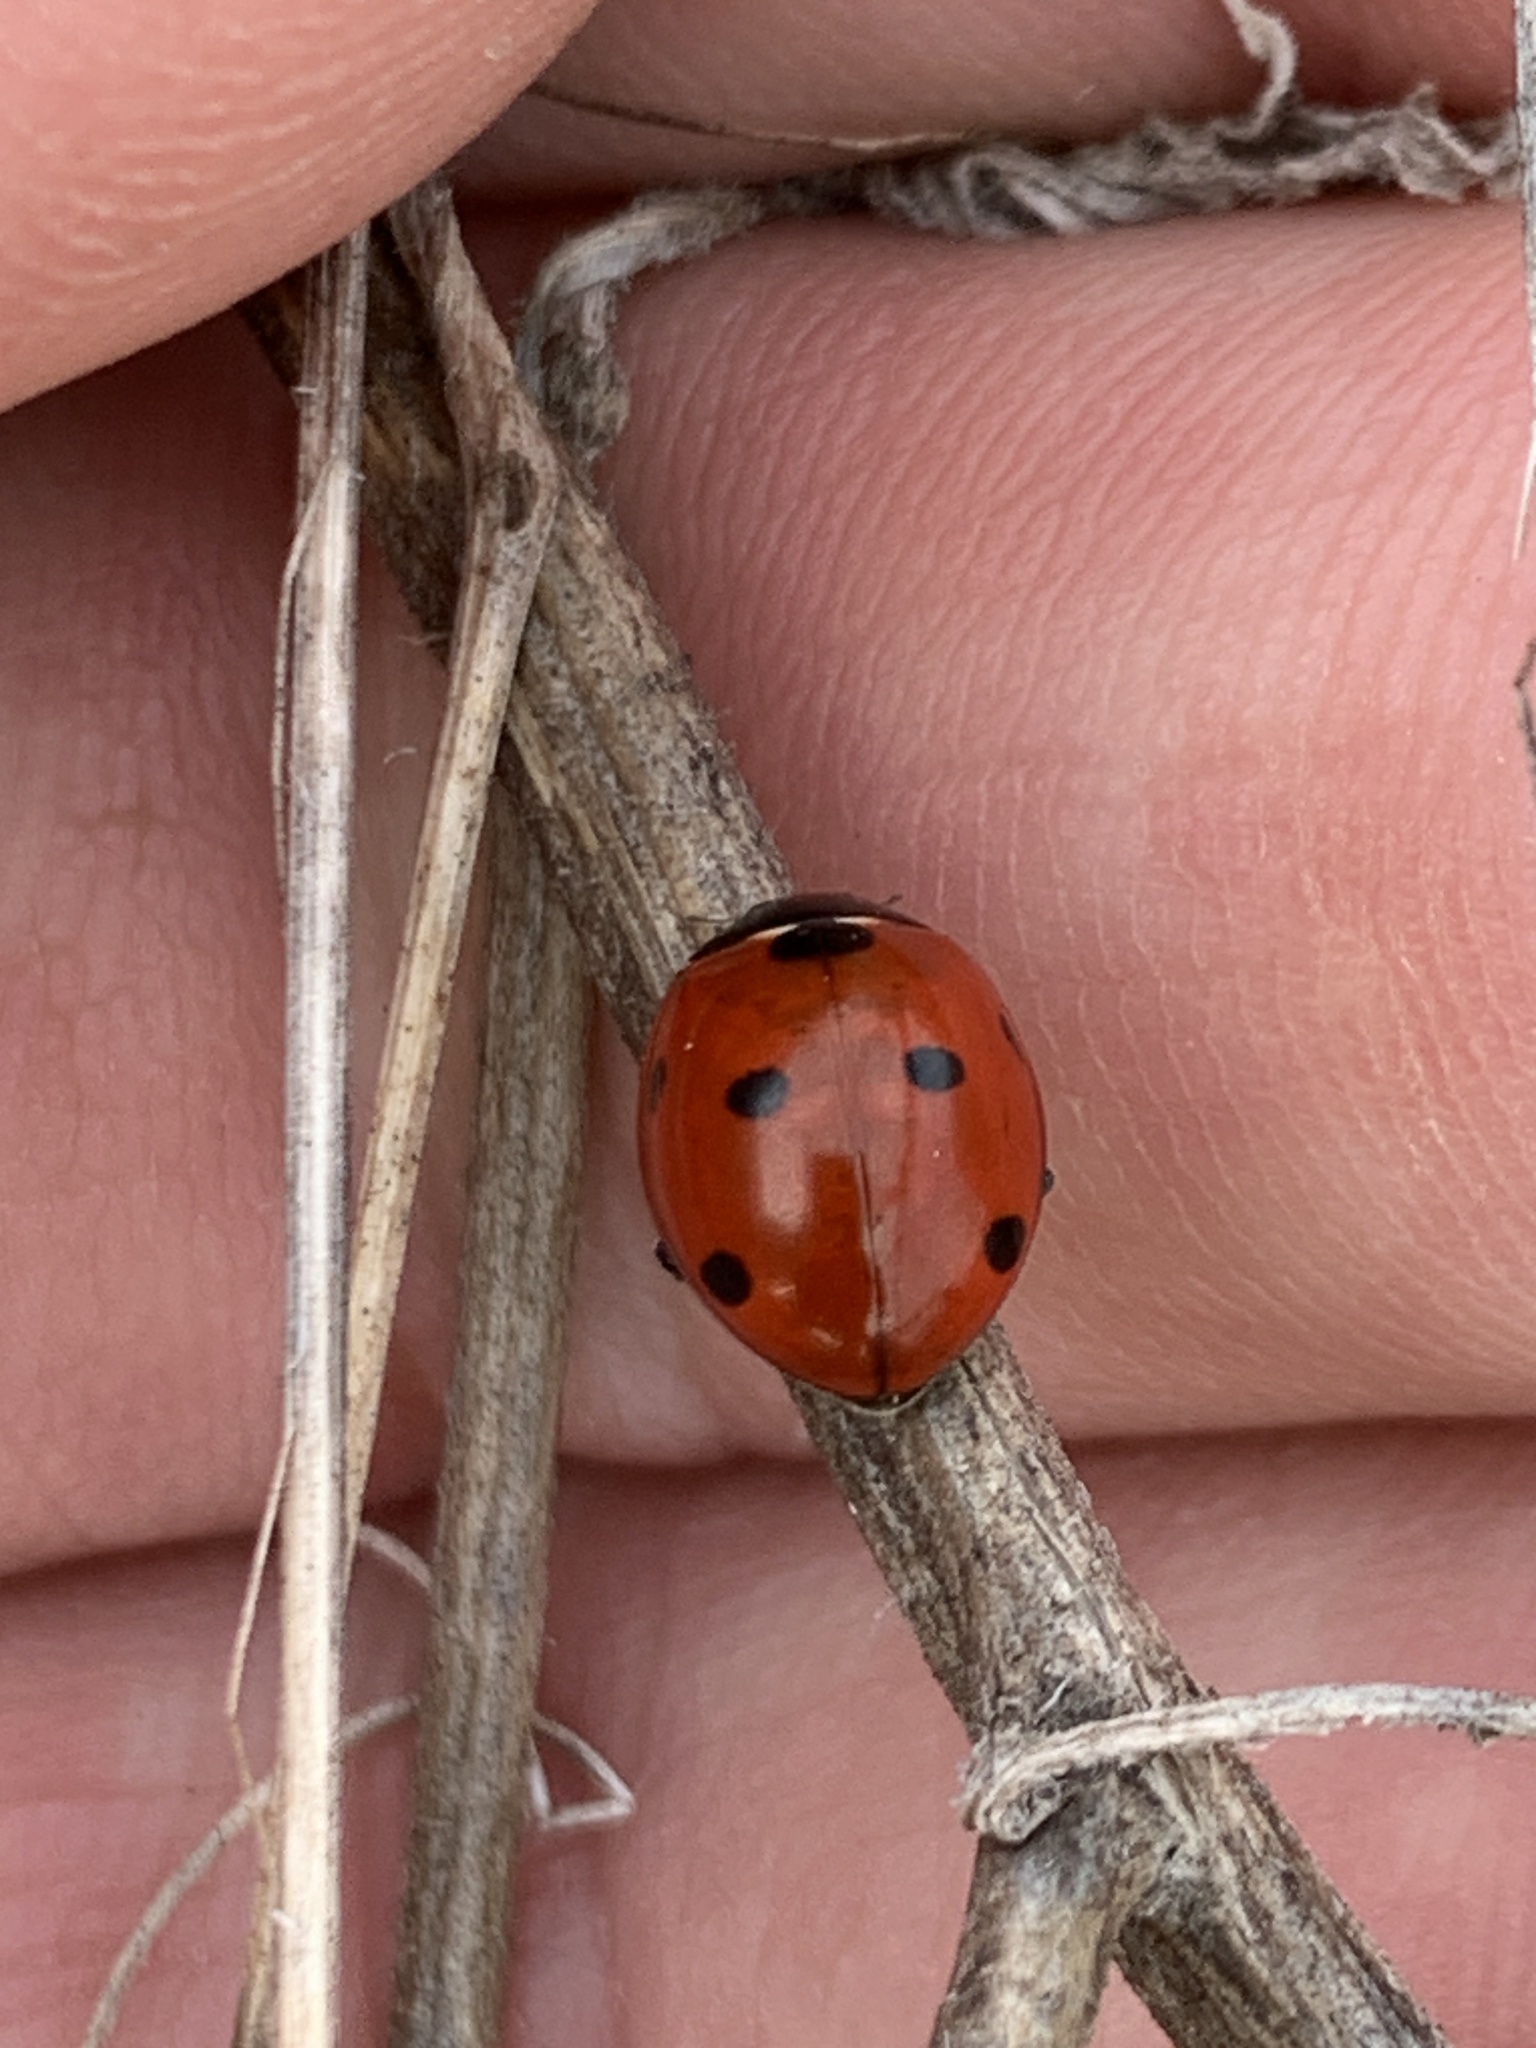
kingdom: Animalia
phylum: Arthropoda
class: Insecta
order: Coleoptera
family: Coccinellidae
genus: Coccinella
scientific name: Coccinella septempunctata
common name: Sevenspotted lady beetle
